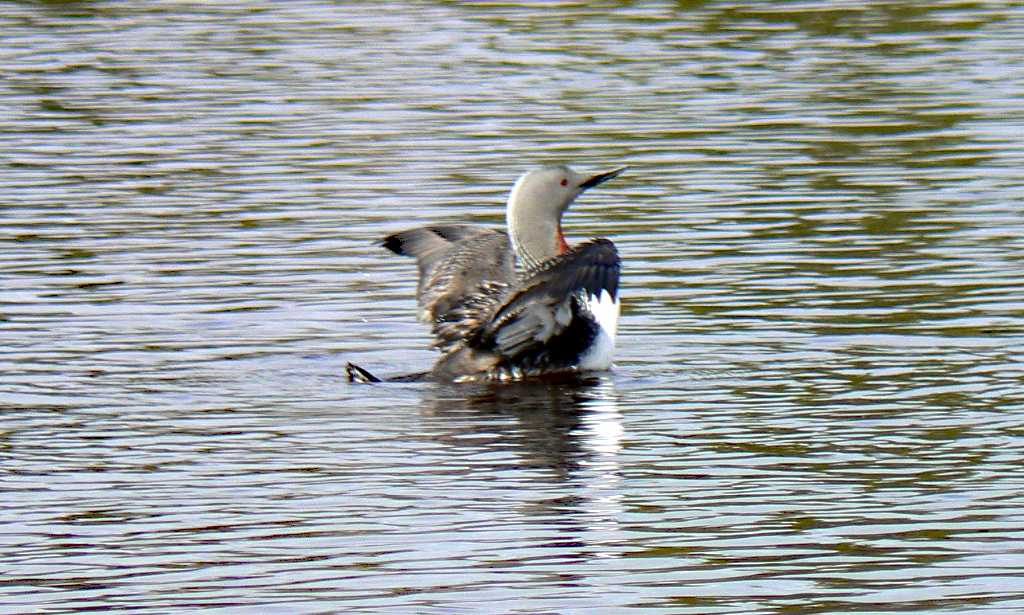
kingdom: Animalia
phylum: Chordata
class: Aves
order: Gaviiformes
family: Gaviidae
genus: Gavia
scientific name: Gavia stellata
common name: Red-throated loon
